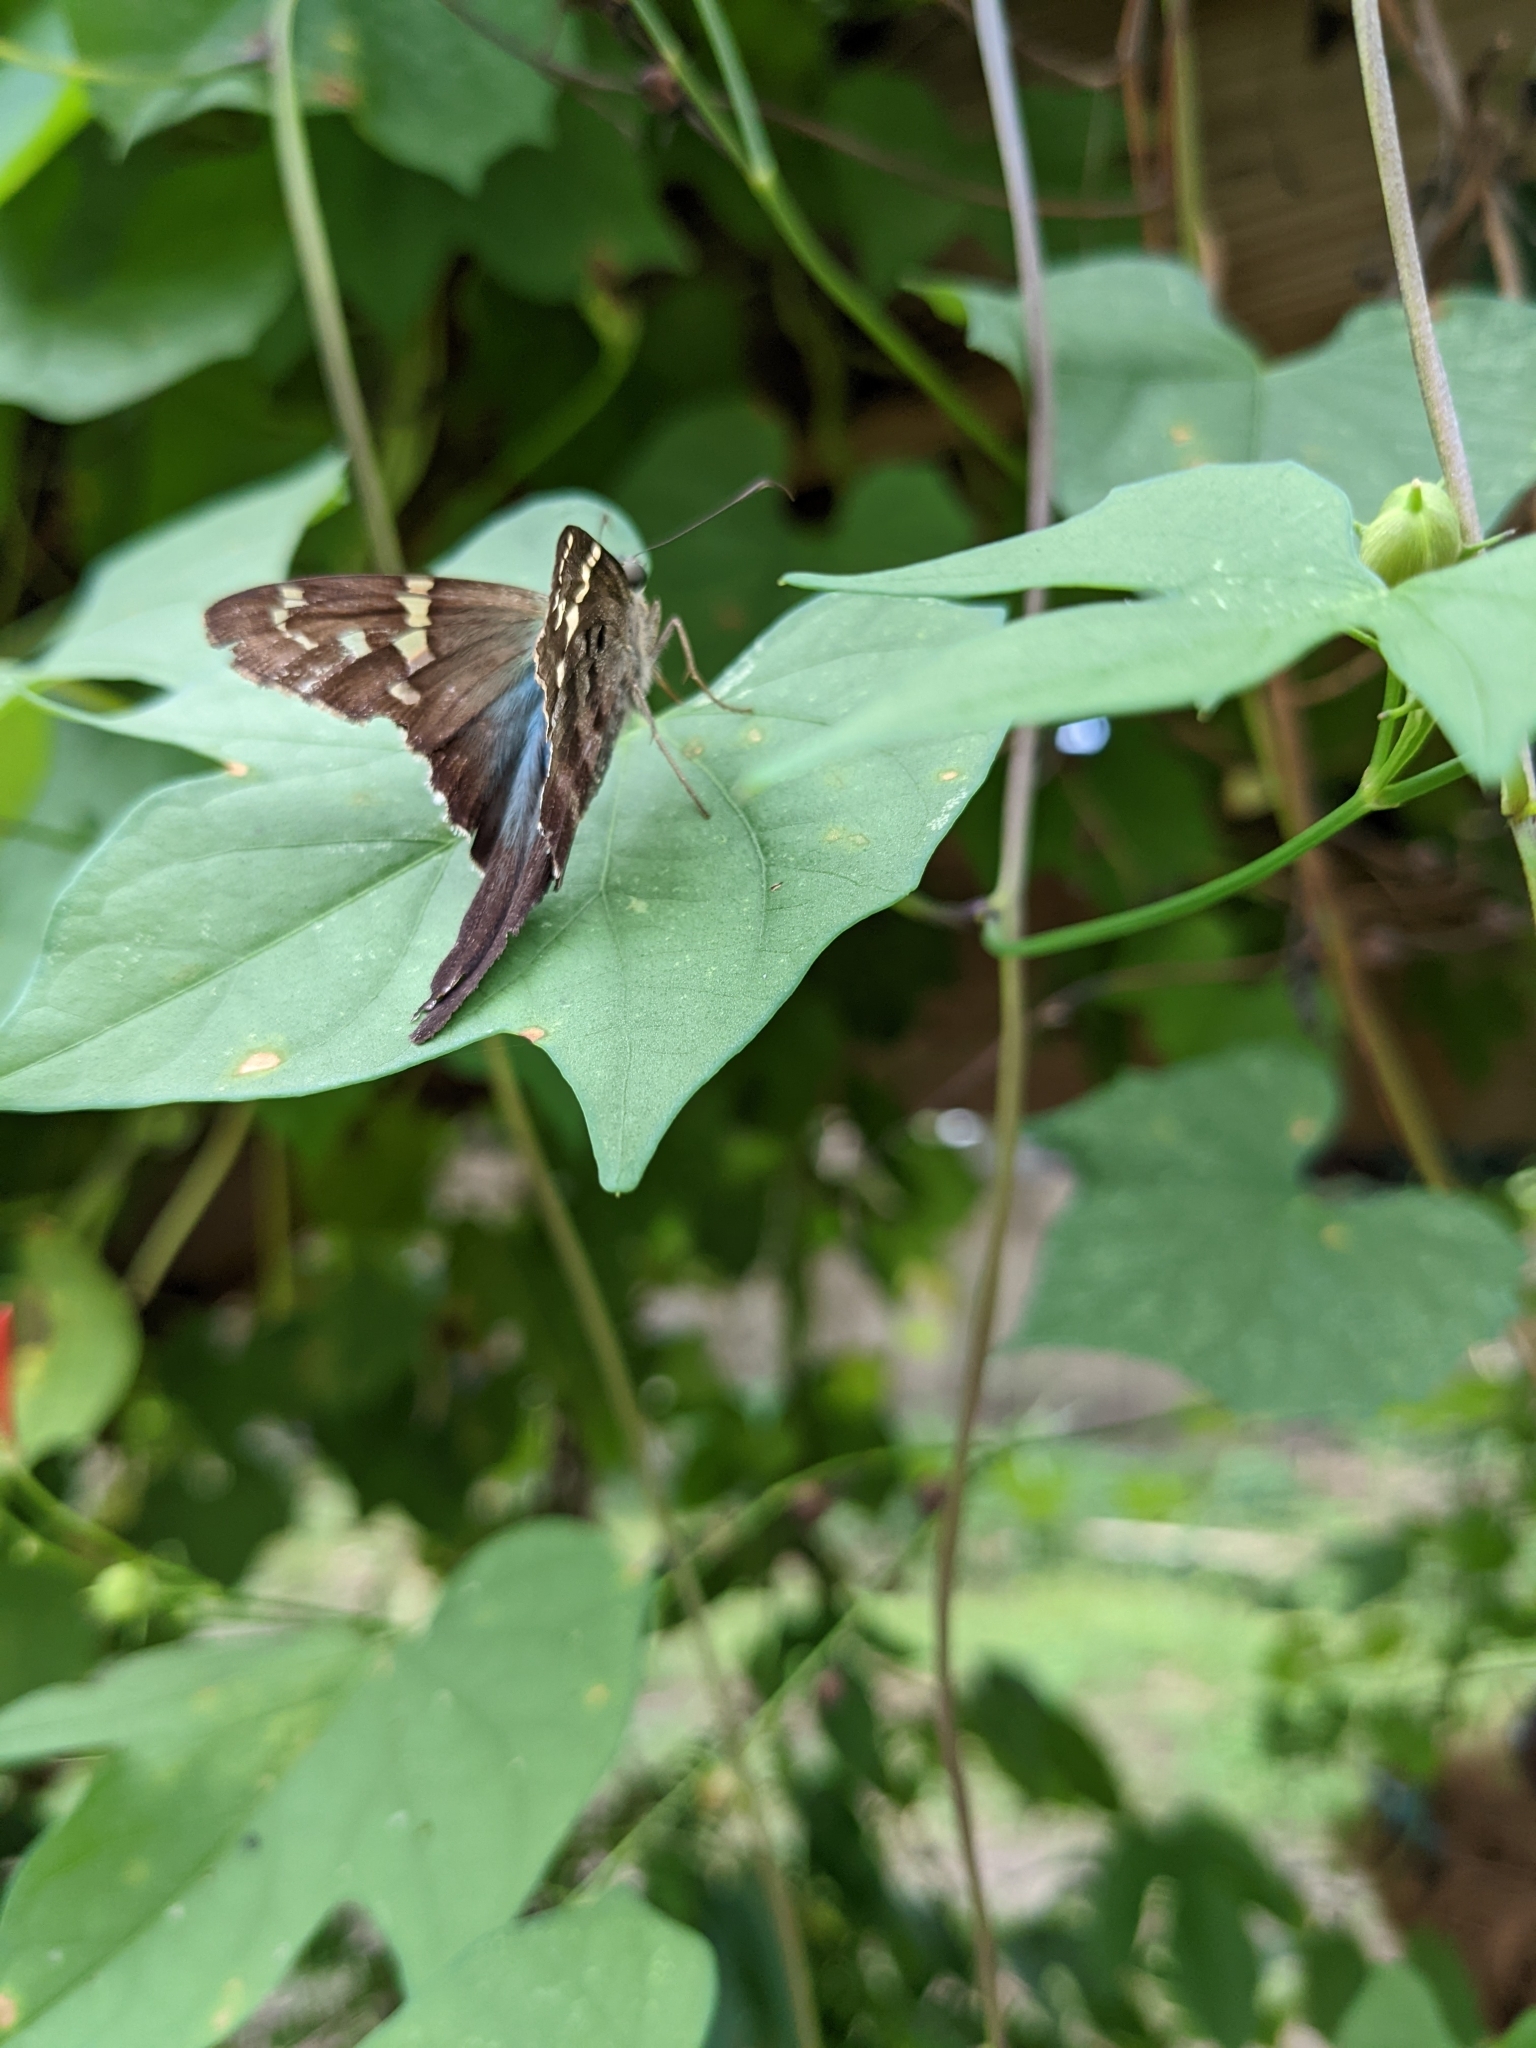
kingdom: Animalia
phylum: Arthropoda
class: Insecta
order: Lepidoptera
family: Hesperiidae
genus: Urbanus
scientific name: Urbanus proteus
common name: Long-tailed skipper
